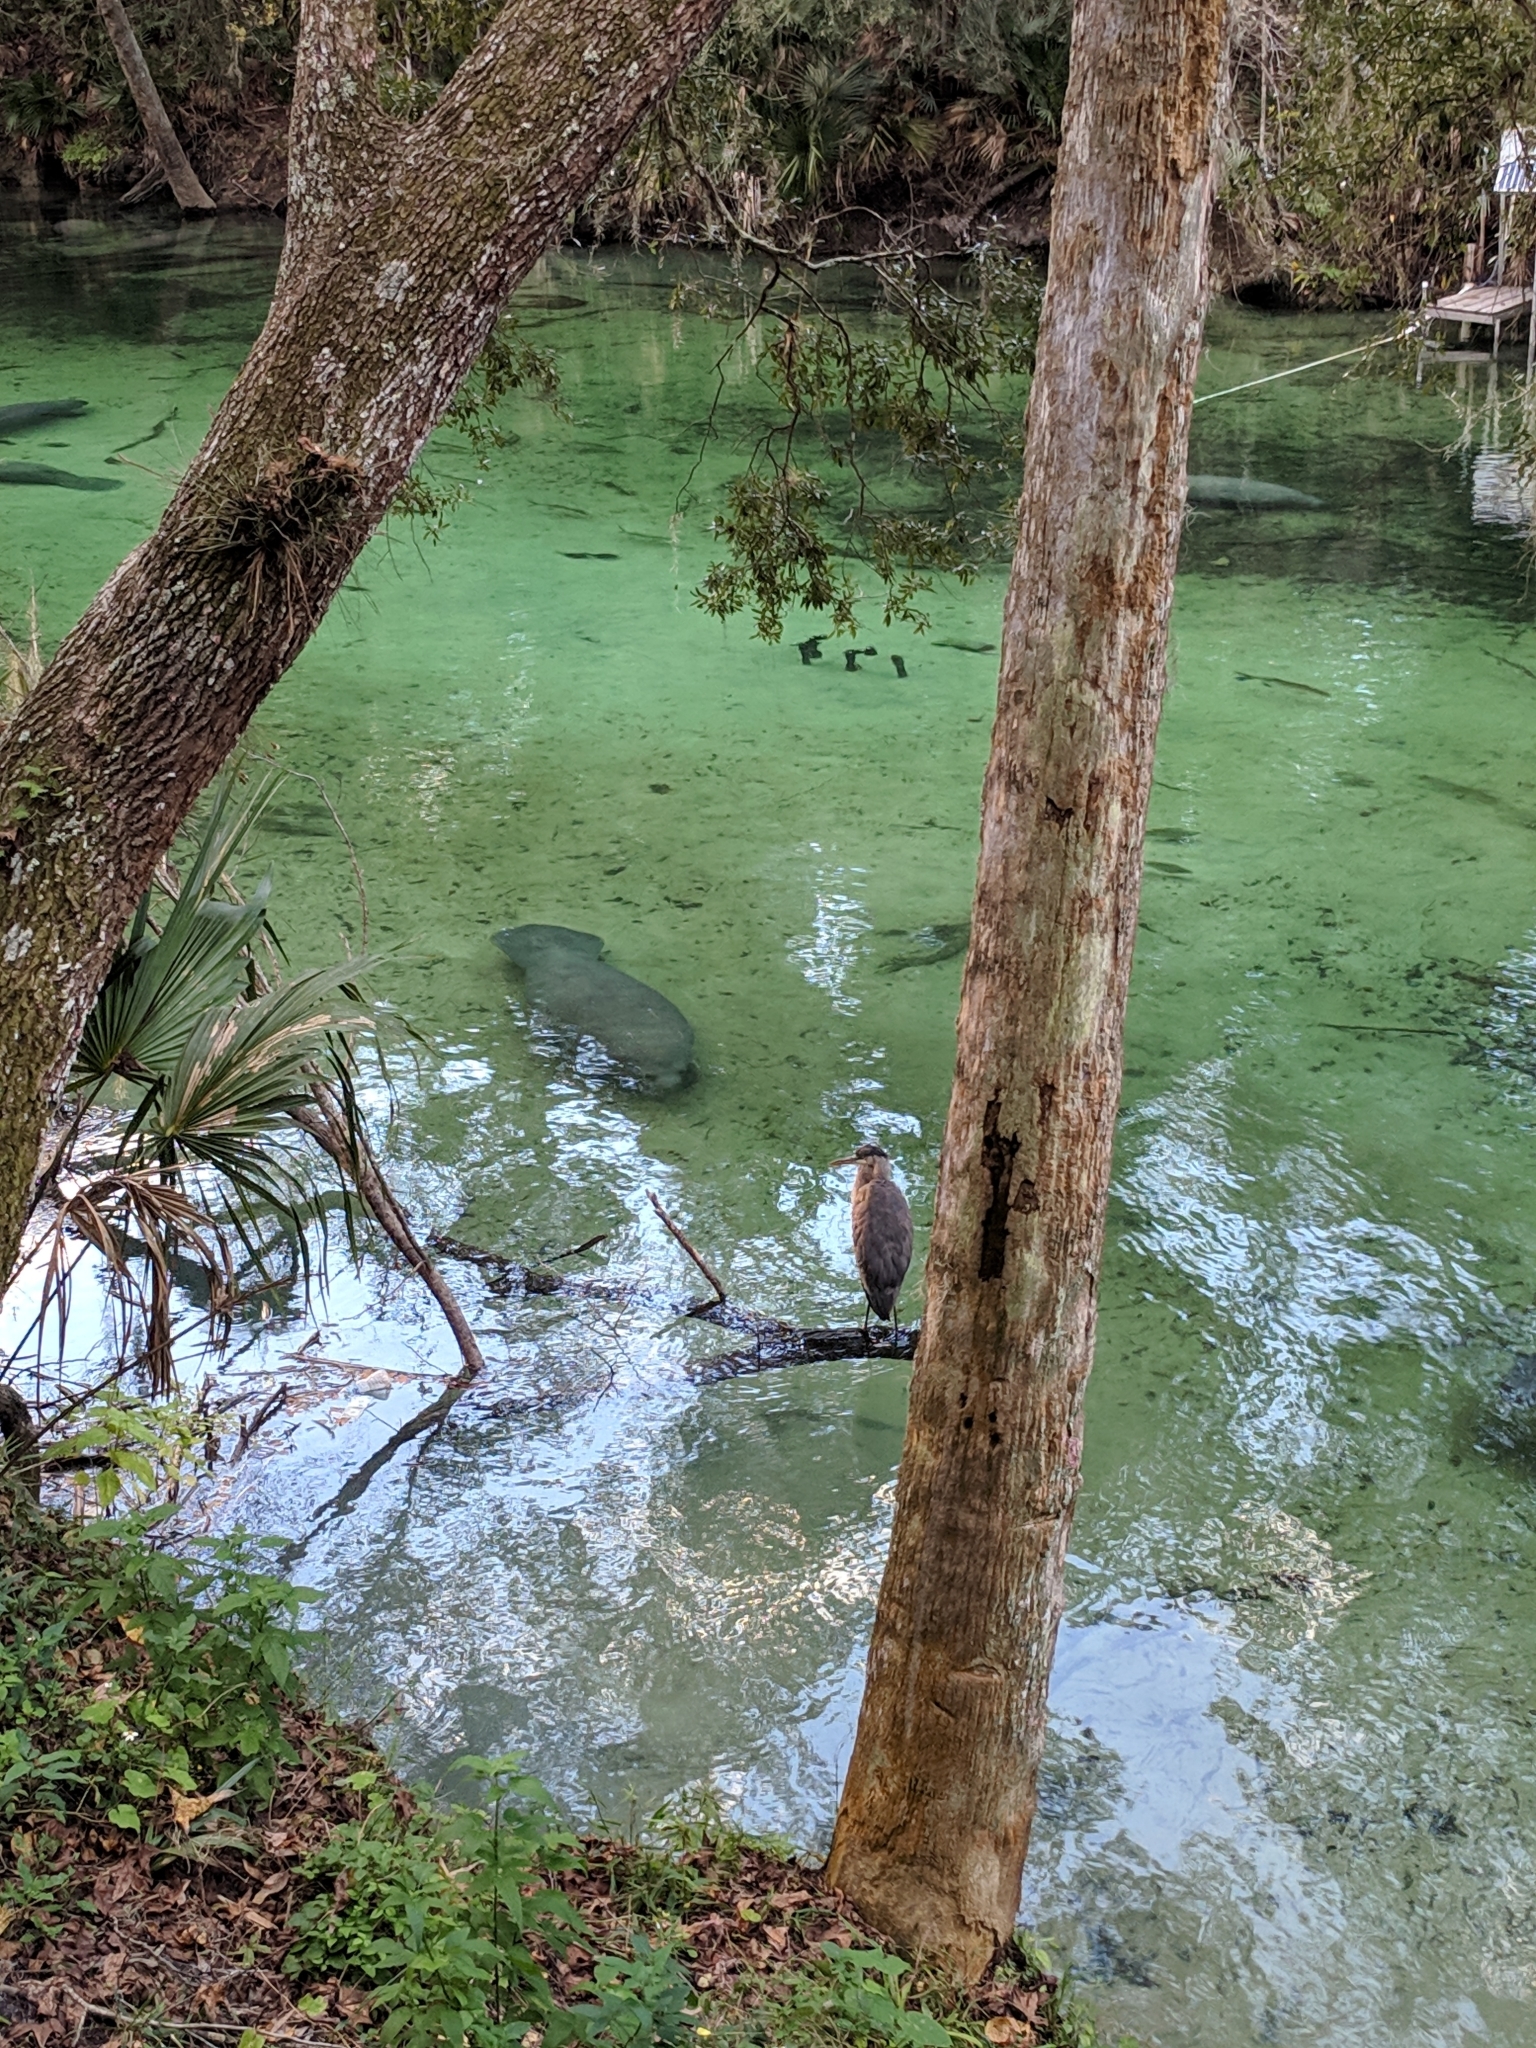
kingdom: Animalia
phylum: Chordata
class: Aves
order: Pelecaniformes
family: Ardeidae
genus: Ardea
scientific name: Ardea herodias
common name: Great blue heron
